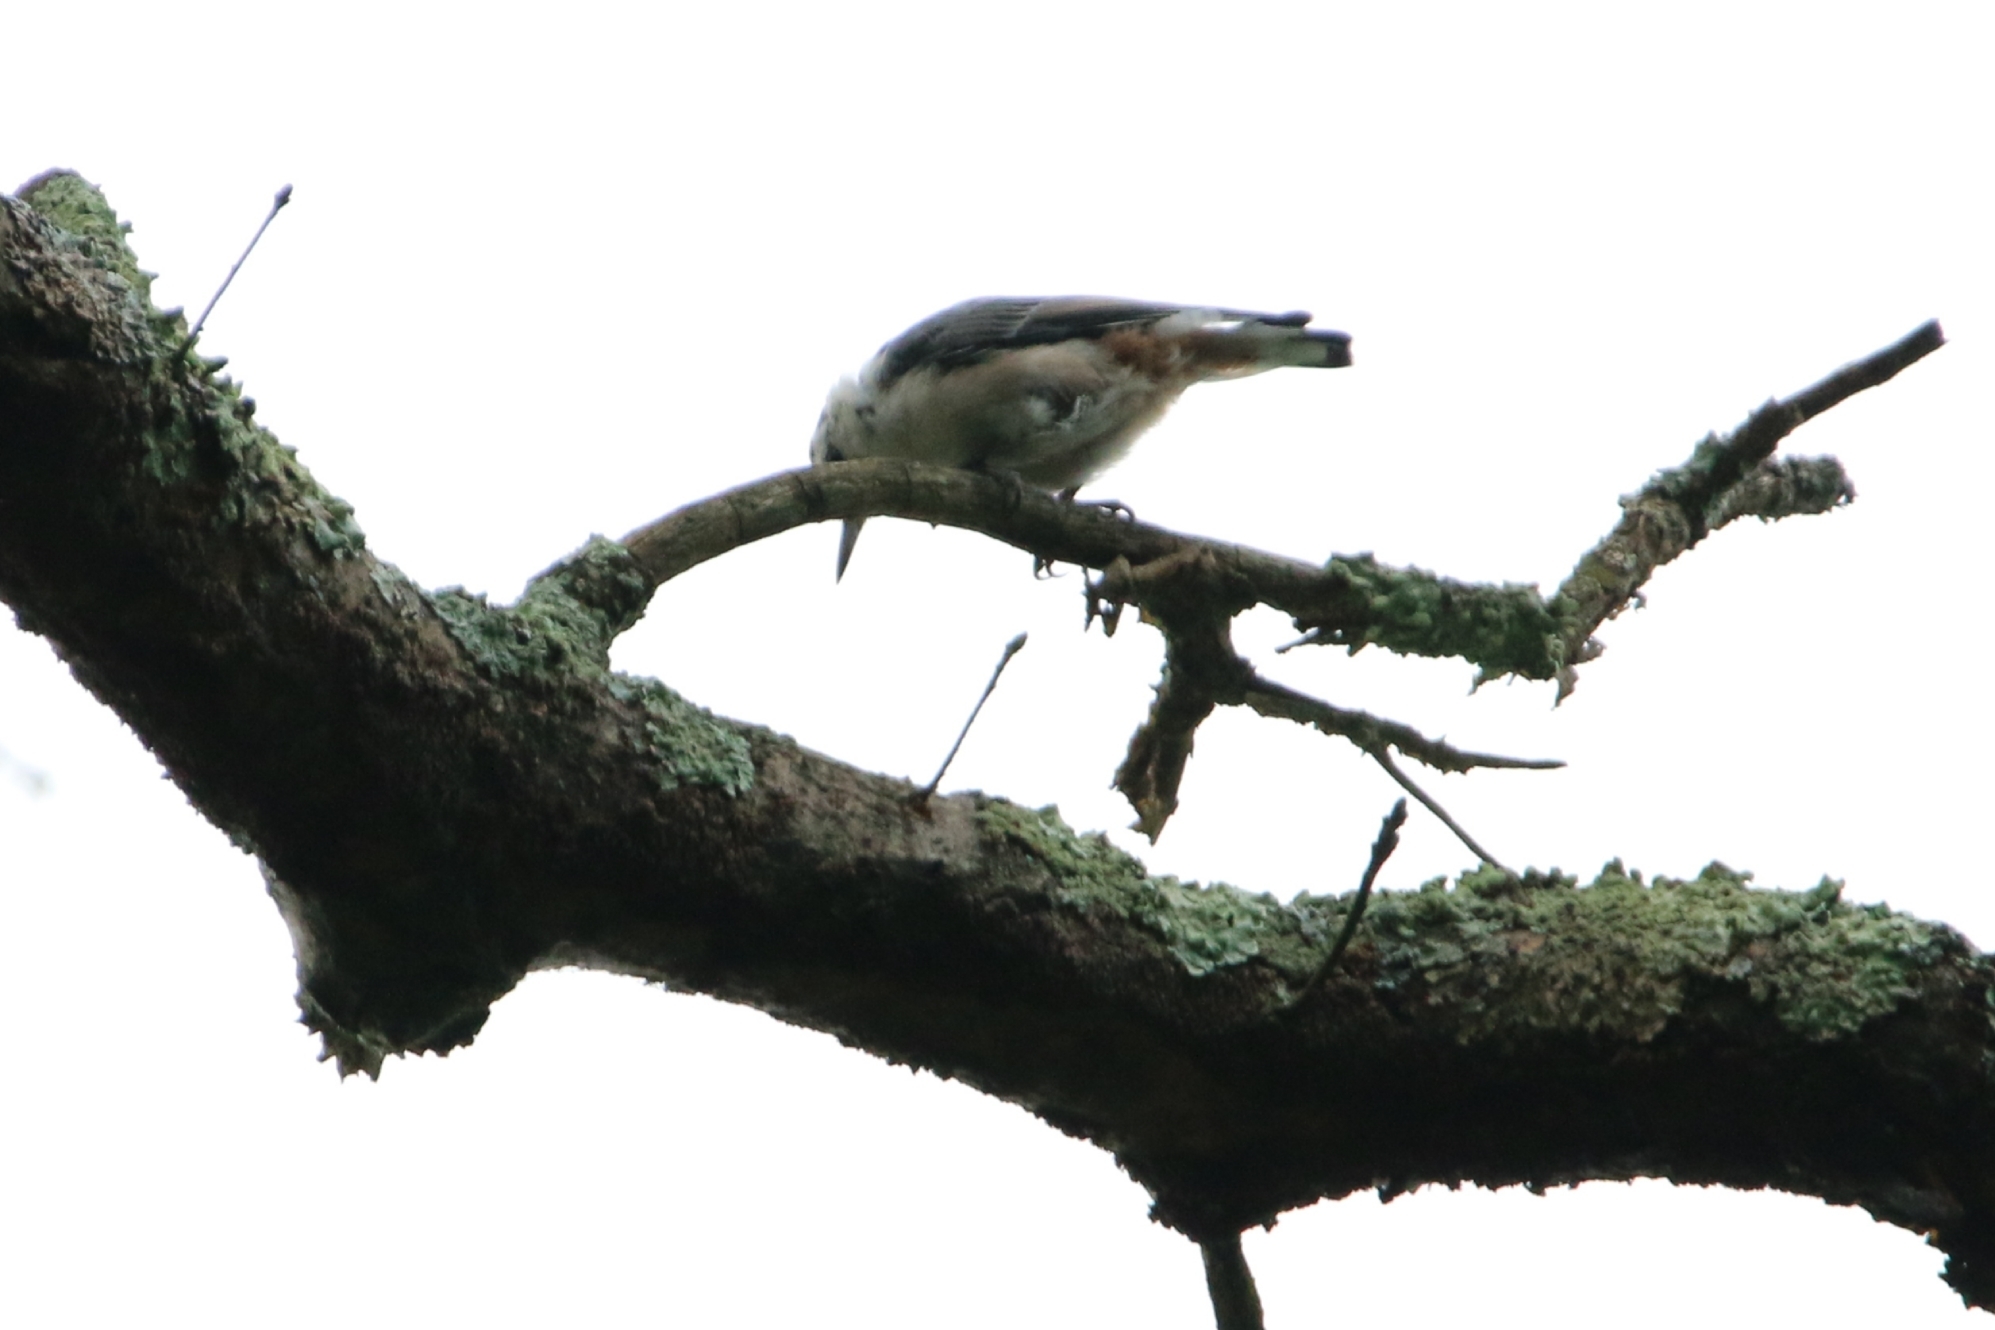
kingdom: Animalia
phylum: Chordata
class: Aves
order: Passeriformes
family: Sittidae
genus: Sitta
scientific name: Sitta carolinensis
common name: White-breasted nuthatch
